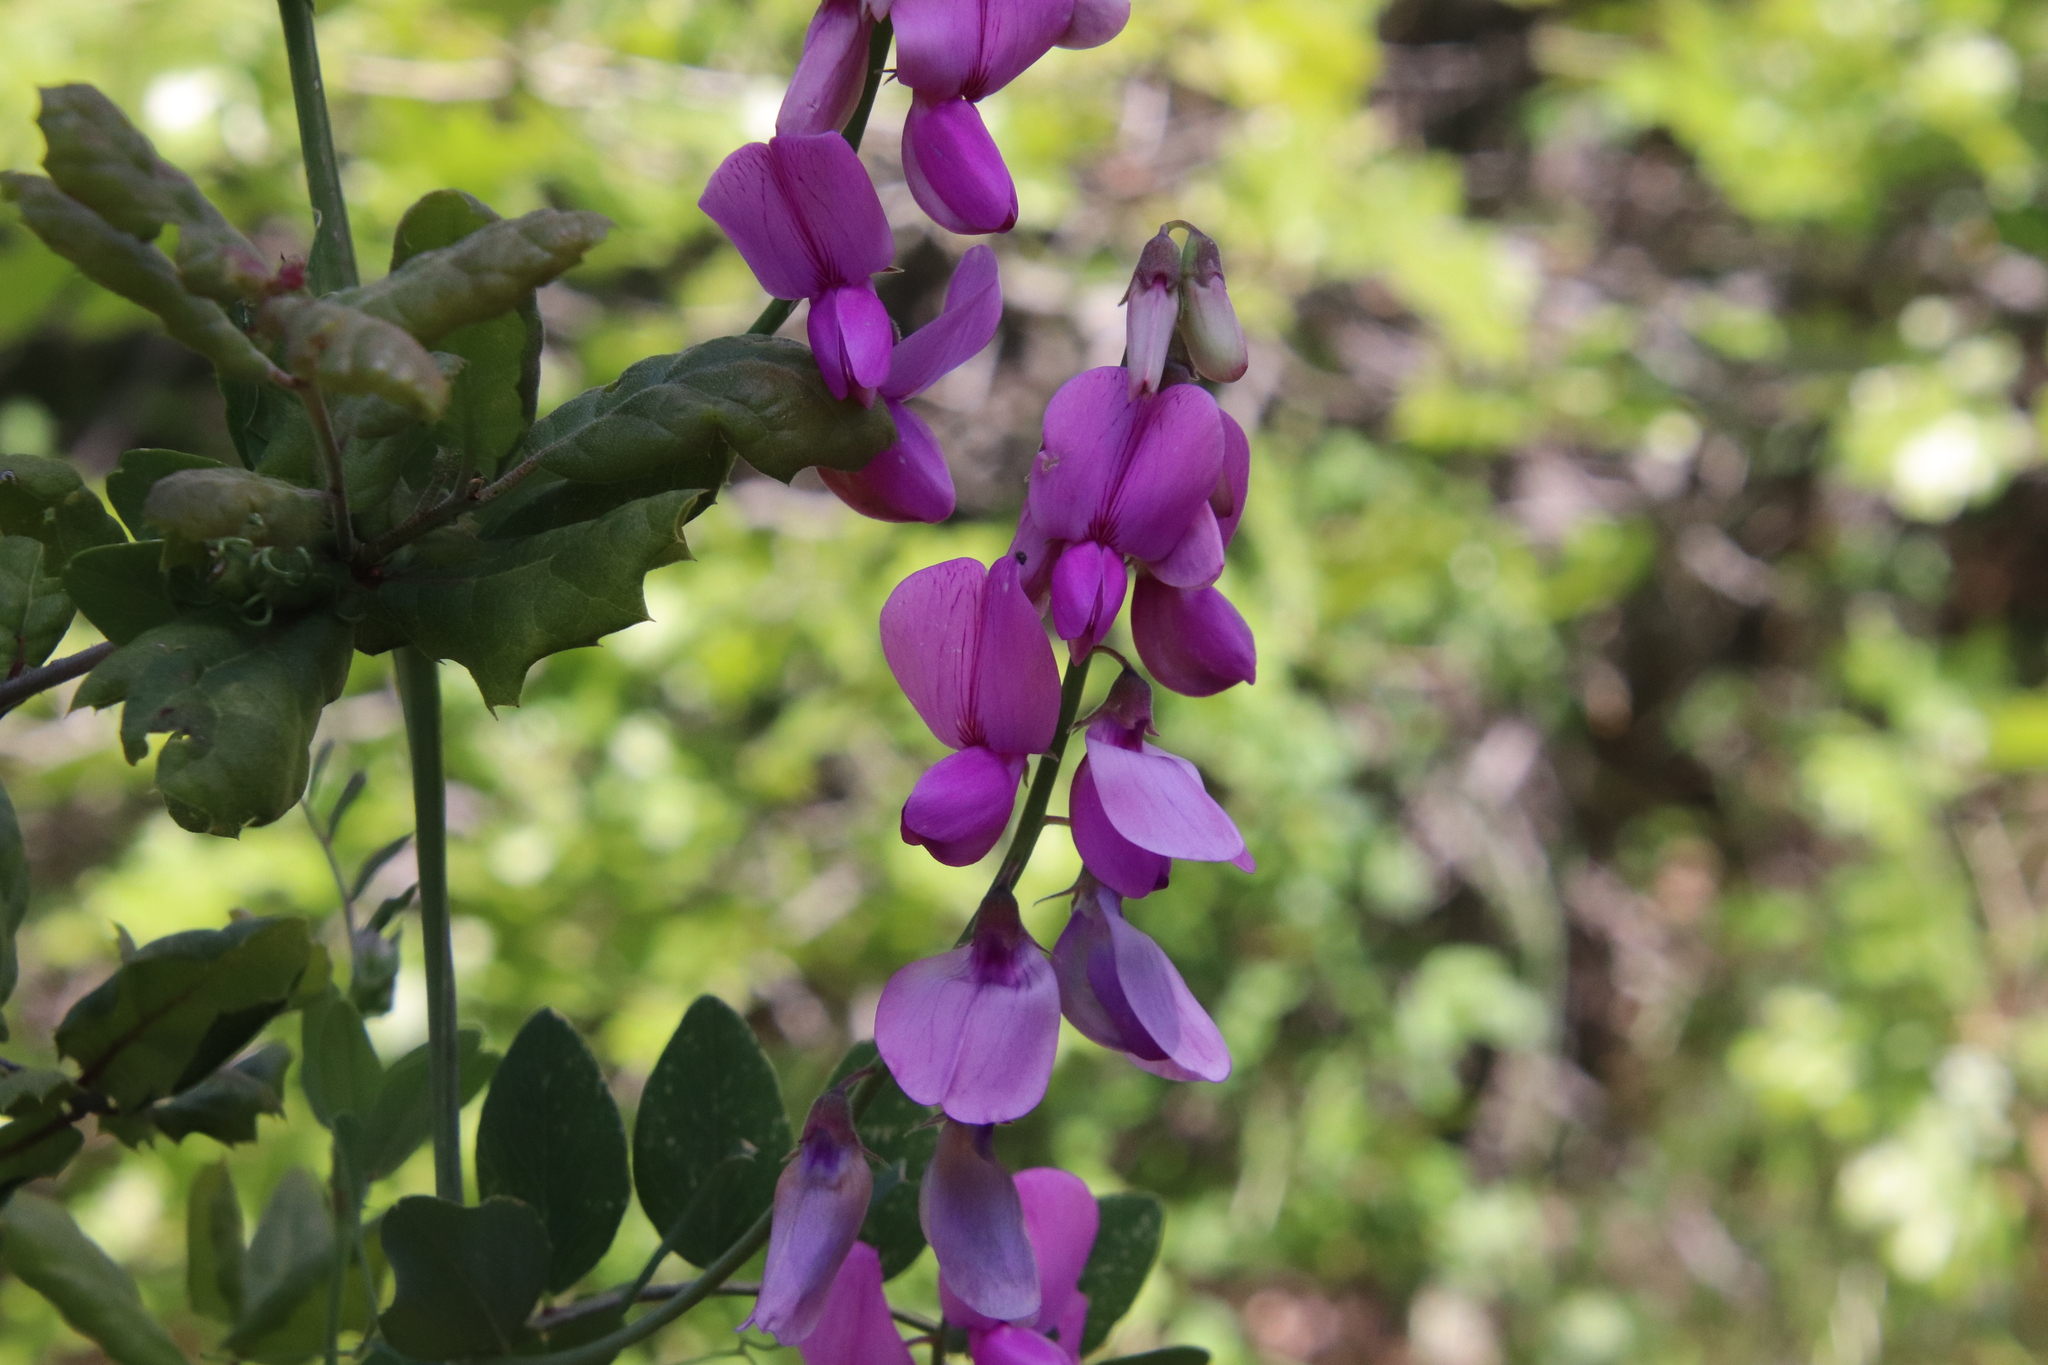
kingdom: Plantae
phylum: Tracheophyta
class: Magnoliopsida
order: Fabales
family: Fabaceae
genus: Lathyrus
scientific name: Lathyrus vestitus
